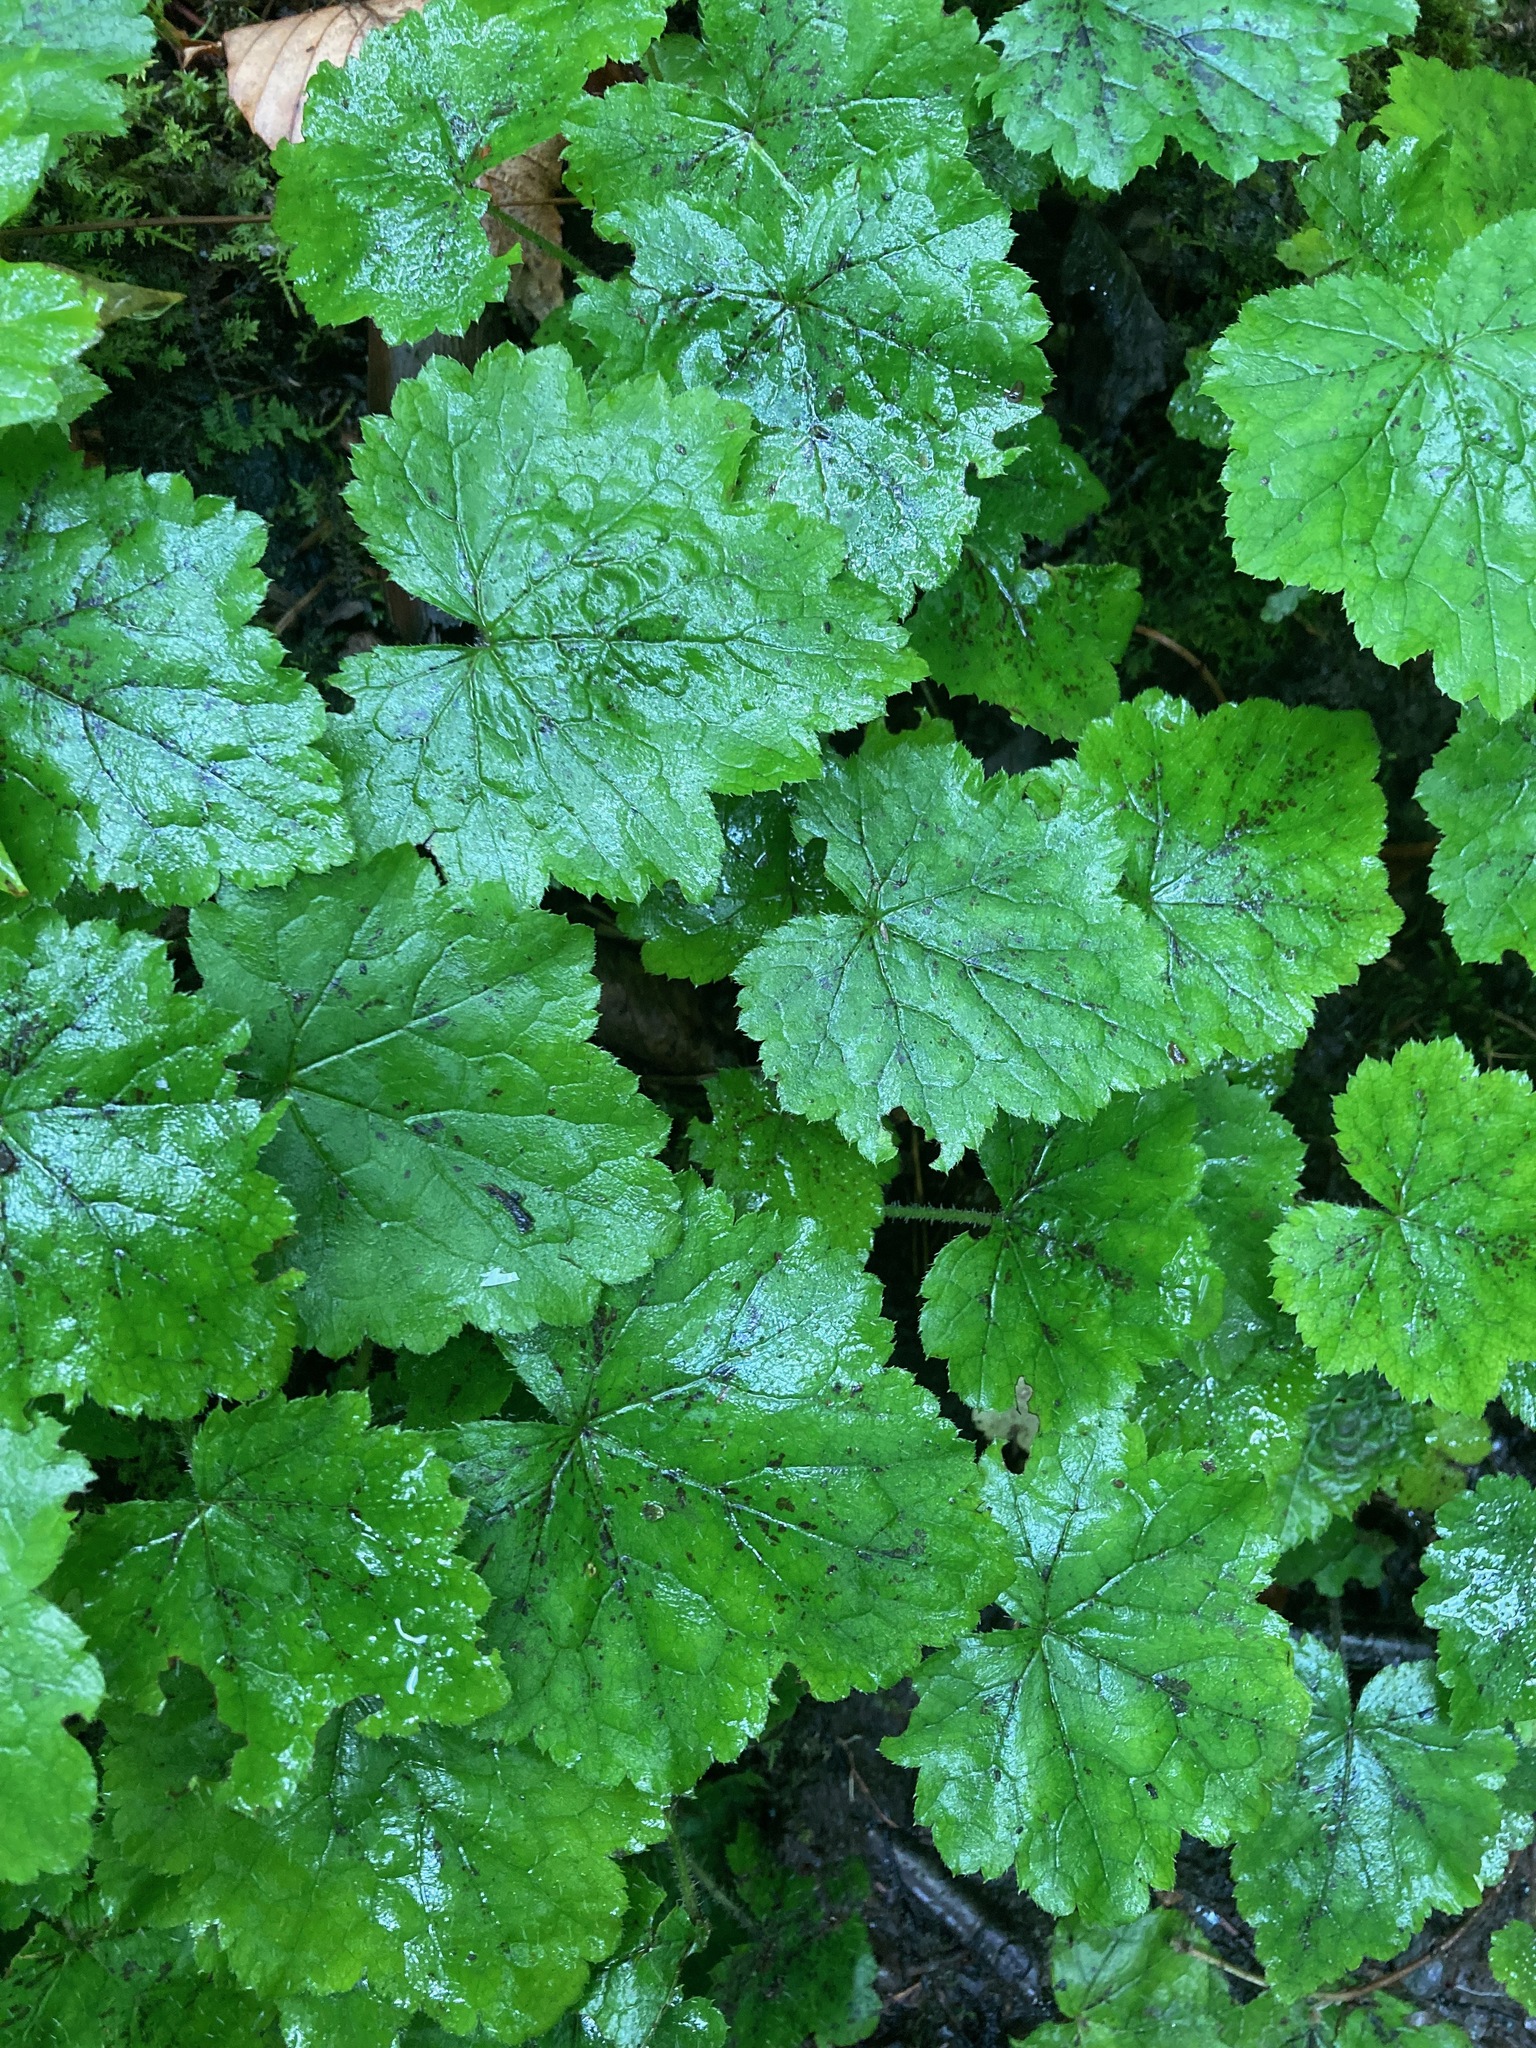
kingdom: Plantae
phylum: Tracheophyta
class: Magnoliopsida
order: Saxifragales
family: Saxifragaceae
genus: Tiarella
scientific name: Tiarella stolonifera
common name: Stoloniferous foamflower
